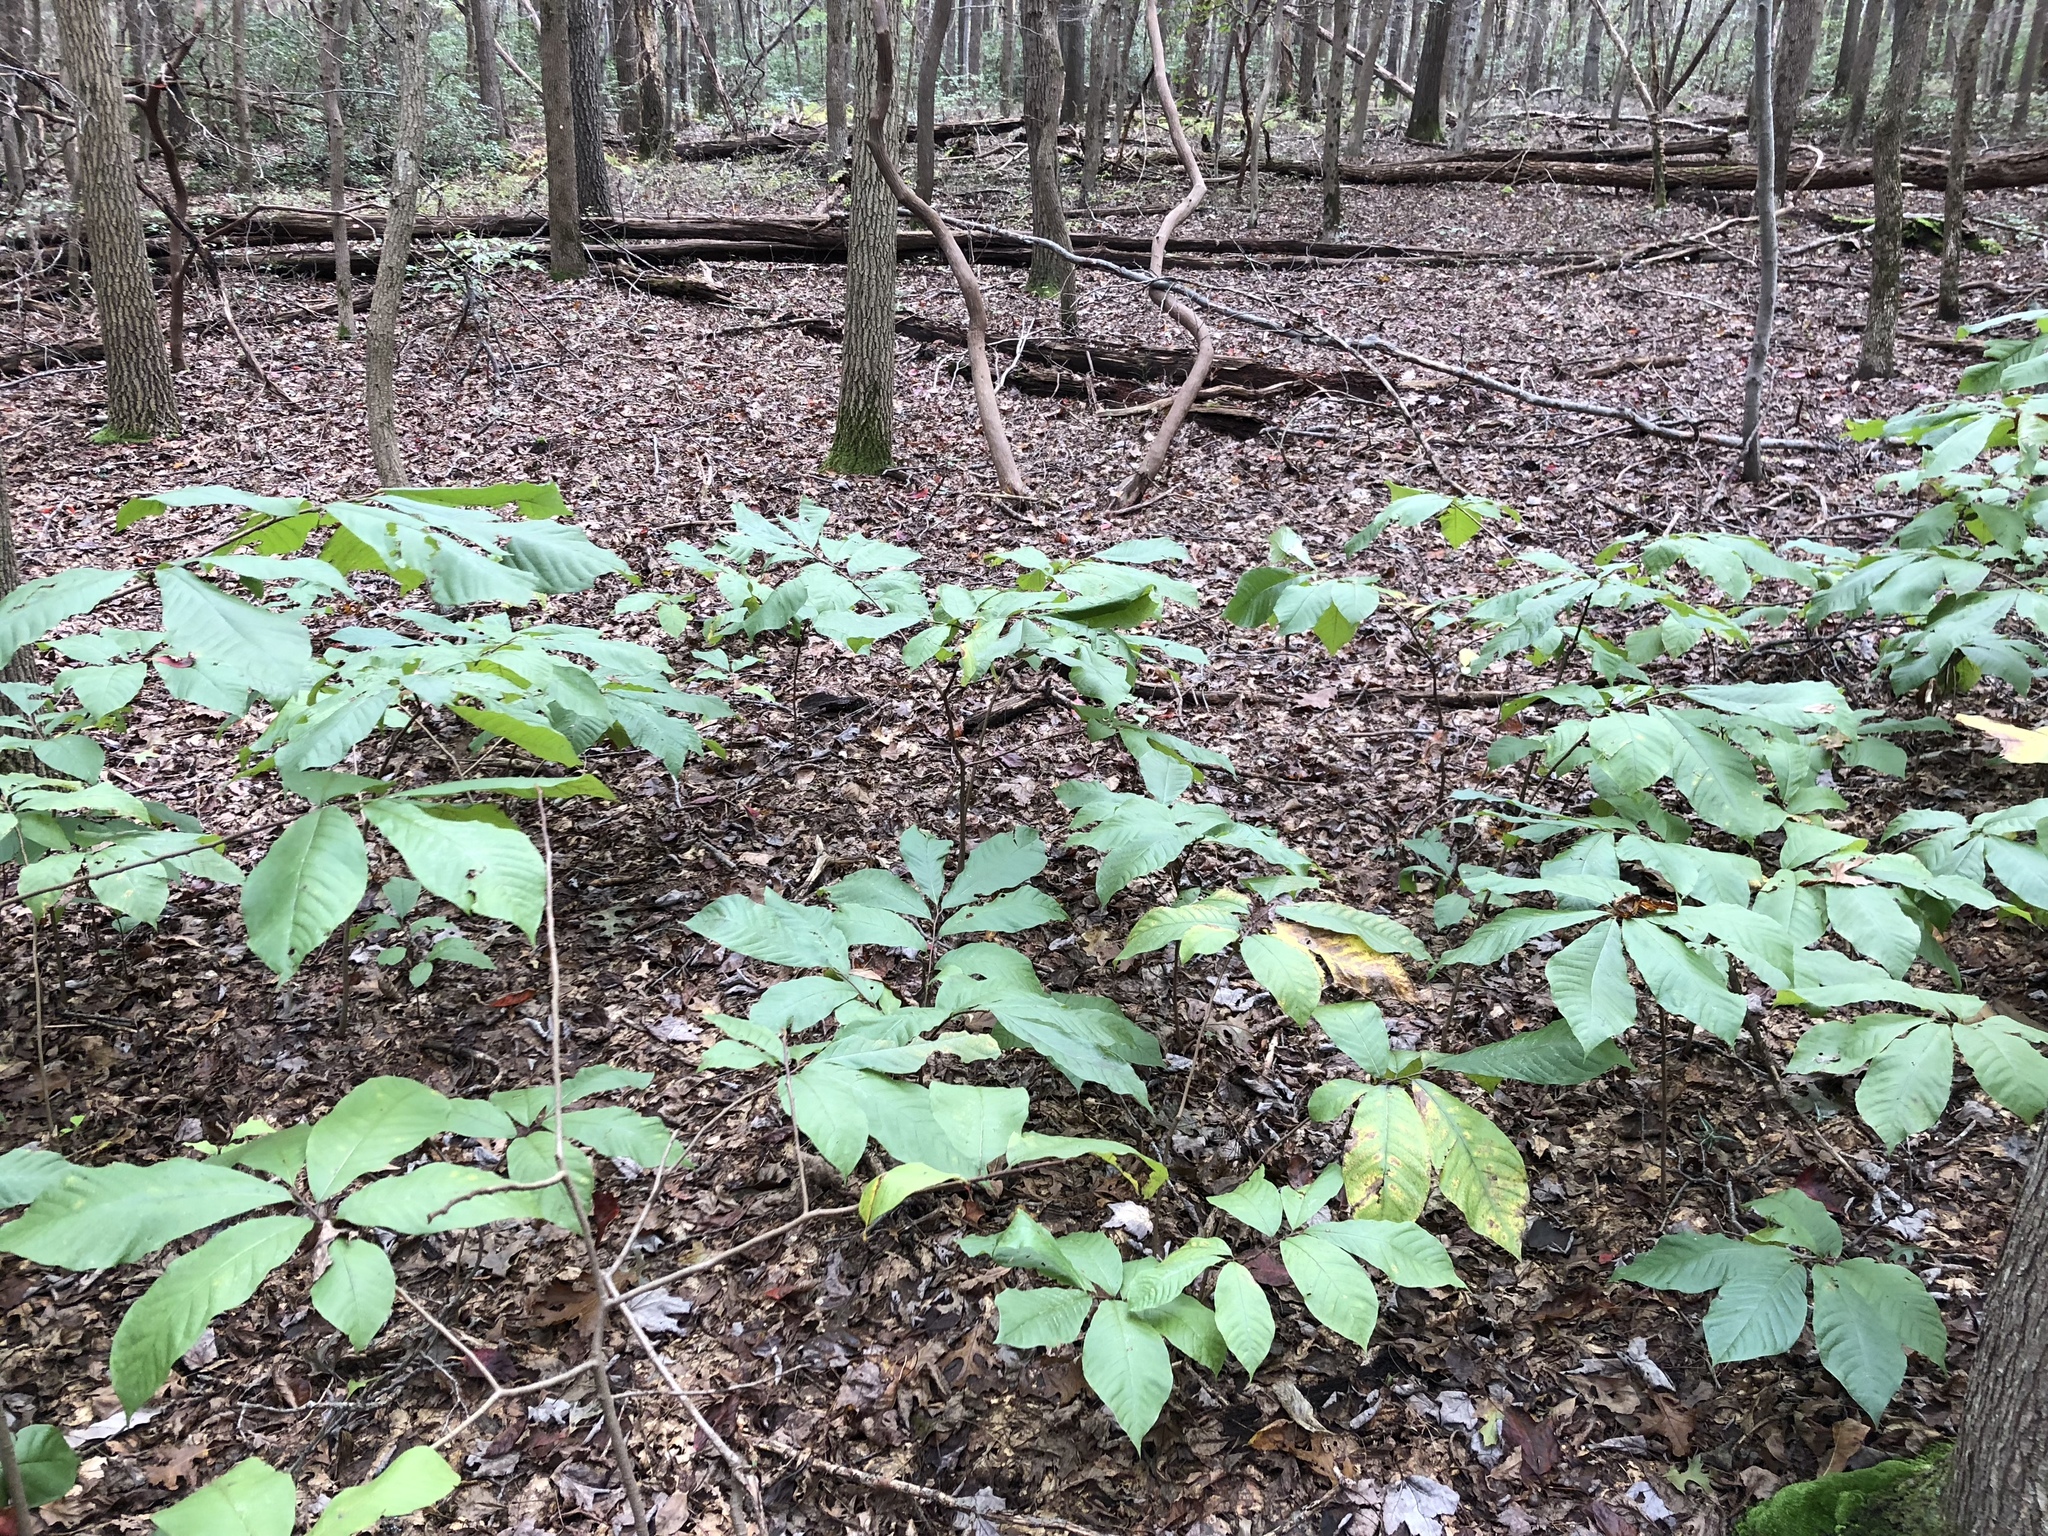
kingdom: Plantae
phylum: Tracheophyta
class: Magnoliopsida
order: Magnoliales
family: Annonaceae
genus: Asimina
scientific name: Asimina triloba
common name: Dog-banana
